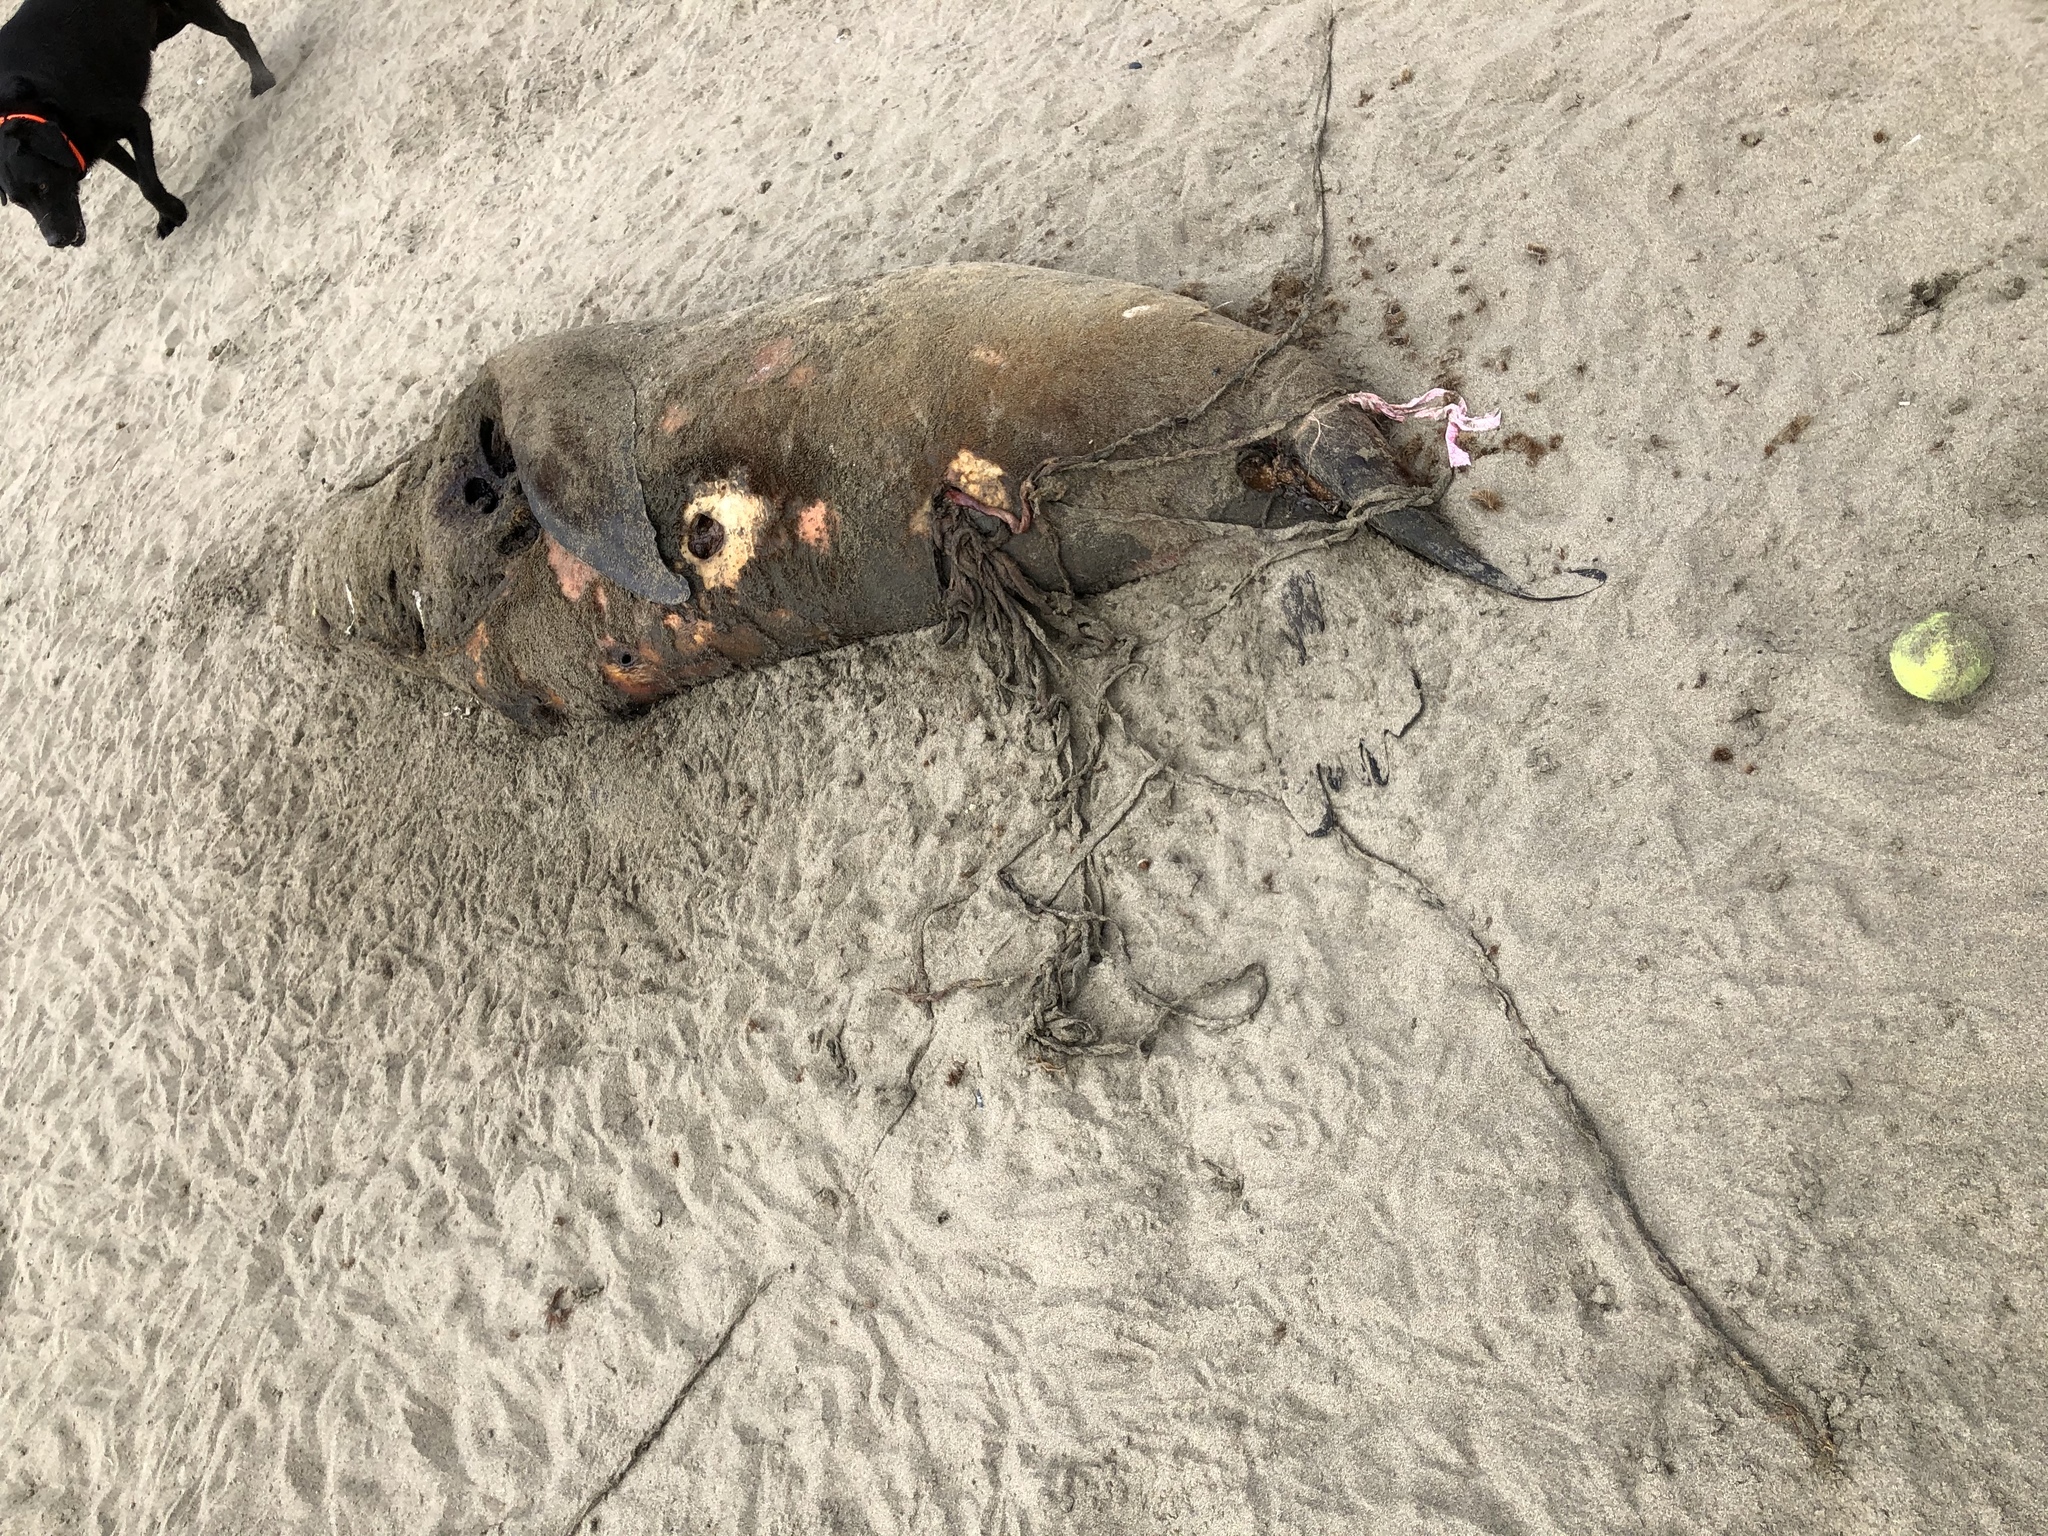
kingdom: Animalia
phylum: Chordata
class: Mammalia
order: Carnivora
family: Otariidae
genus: Zalophus
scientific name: Zalophus californianus
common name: California sea lion
